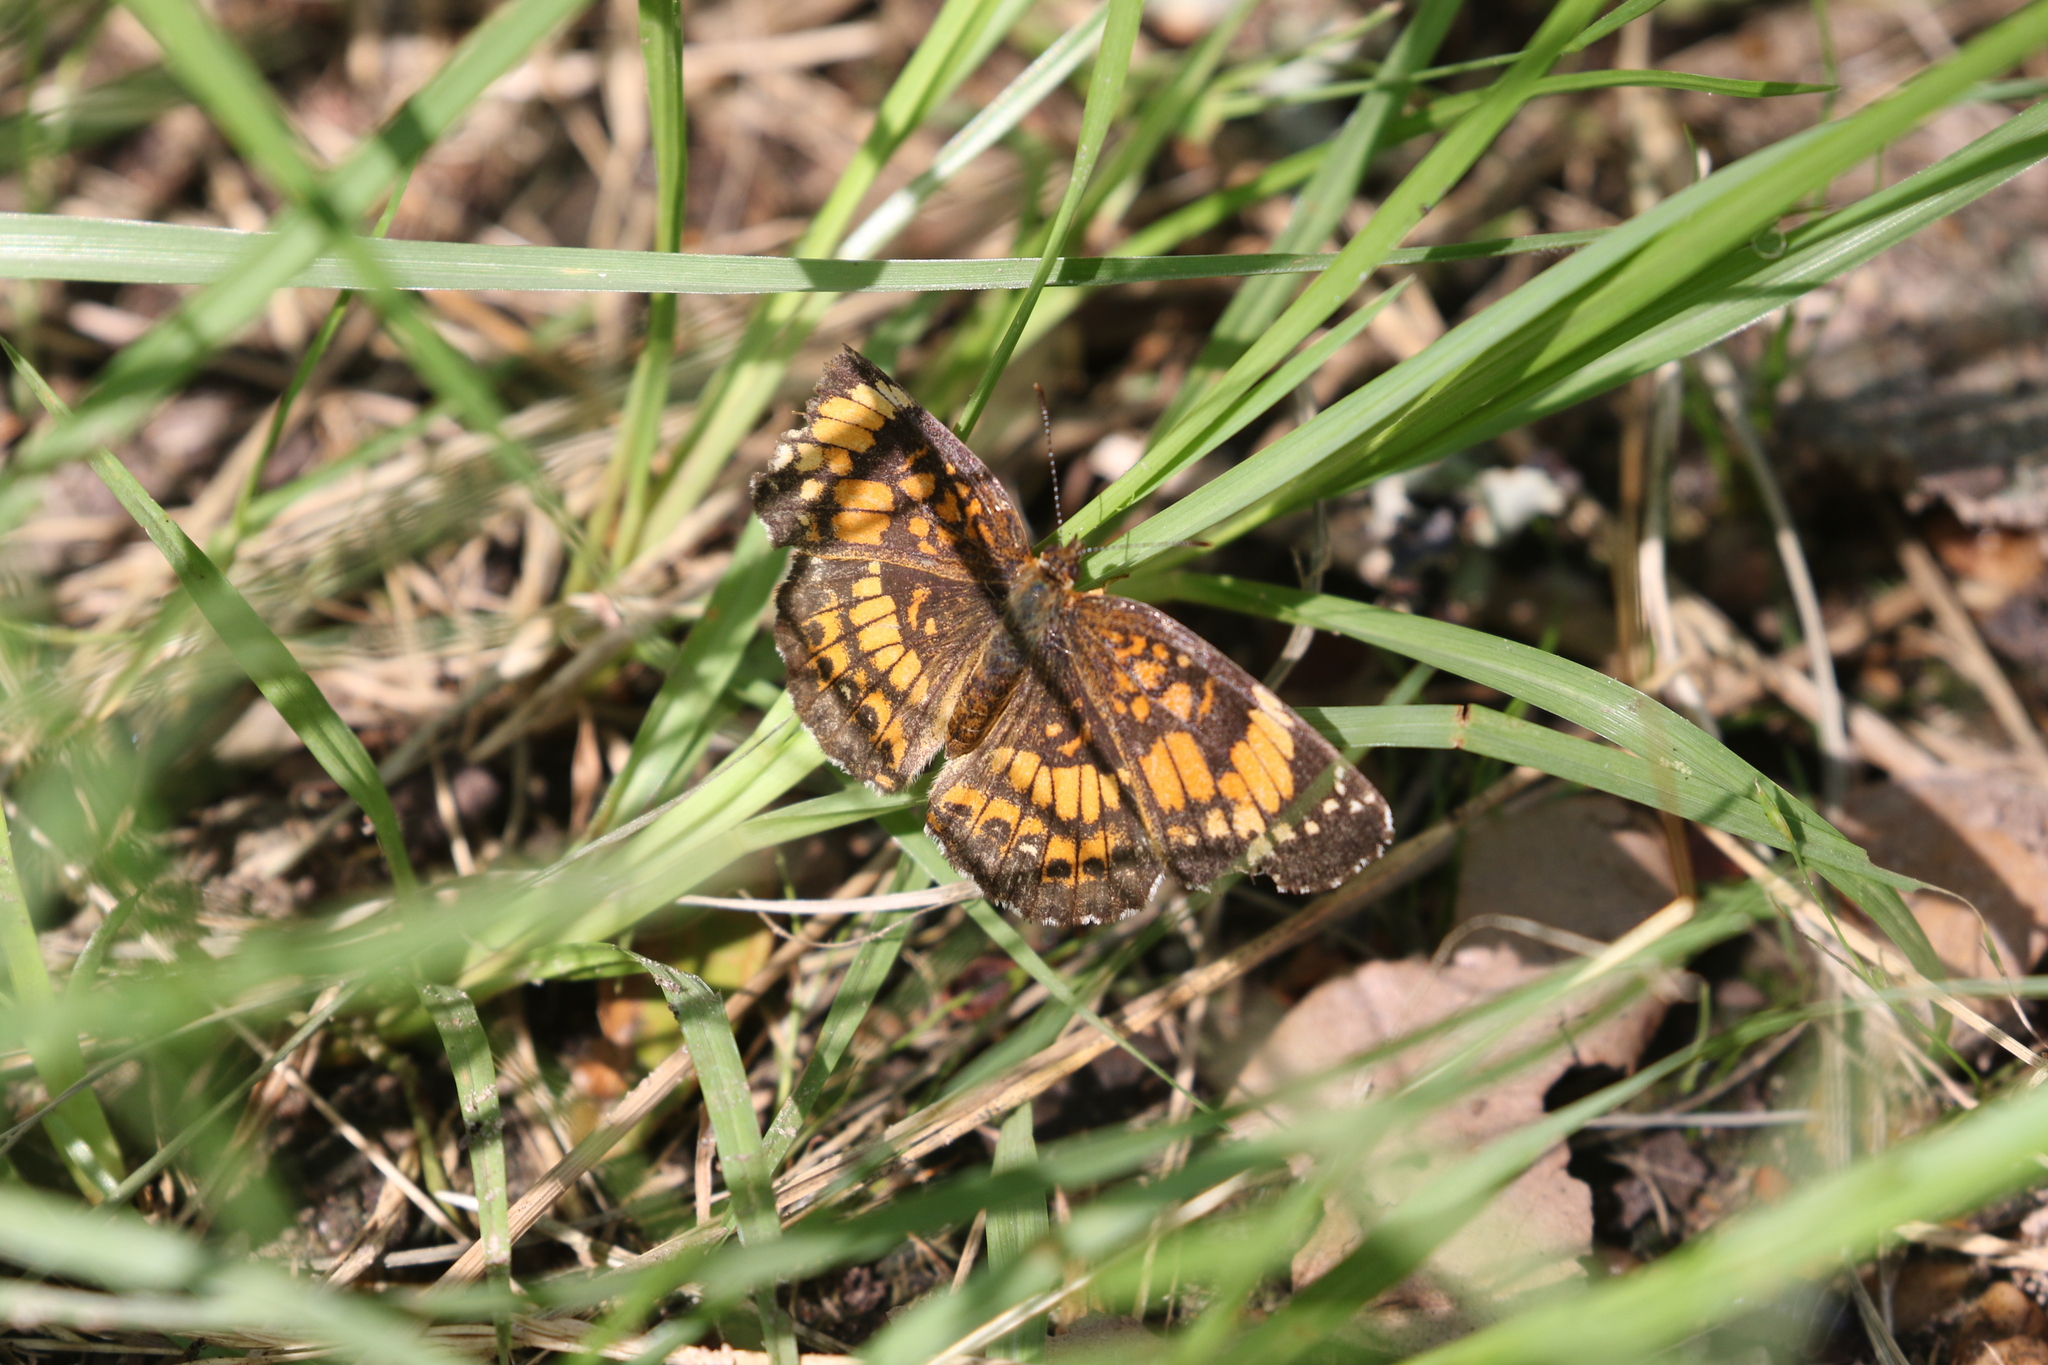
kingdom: Animalia
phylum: Arthropoda
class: Insecta
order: Lepidoptera
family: Nymphalidae
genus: Chlosyne
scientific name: Chlosyne nycteis
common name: Silvery checkerspot
